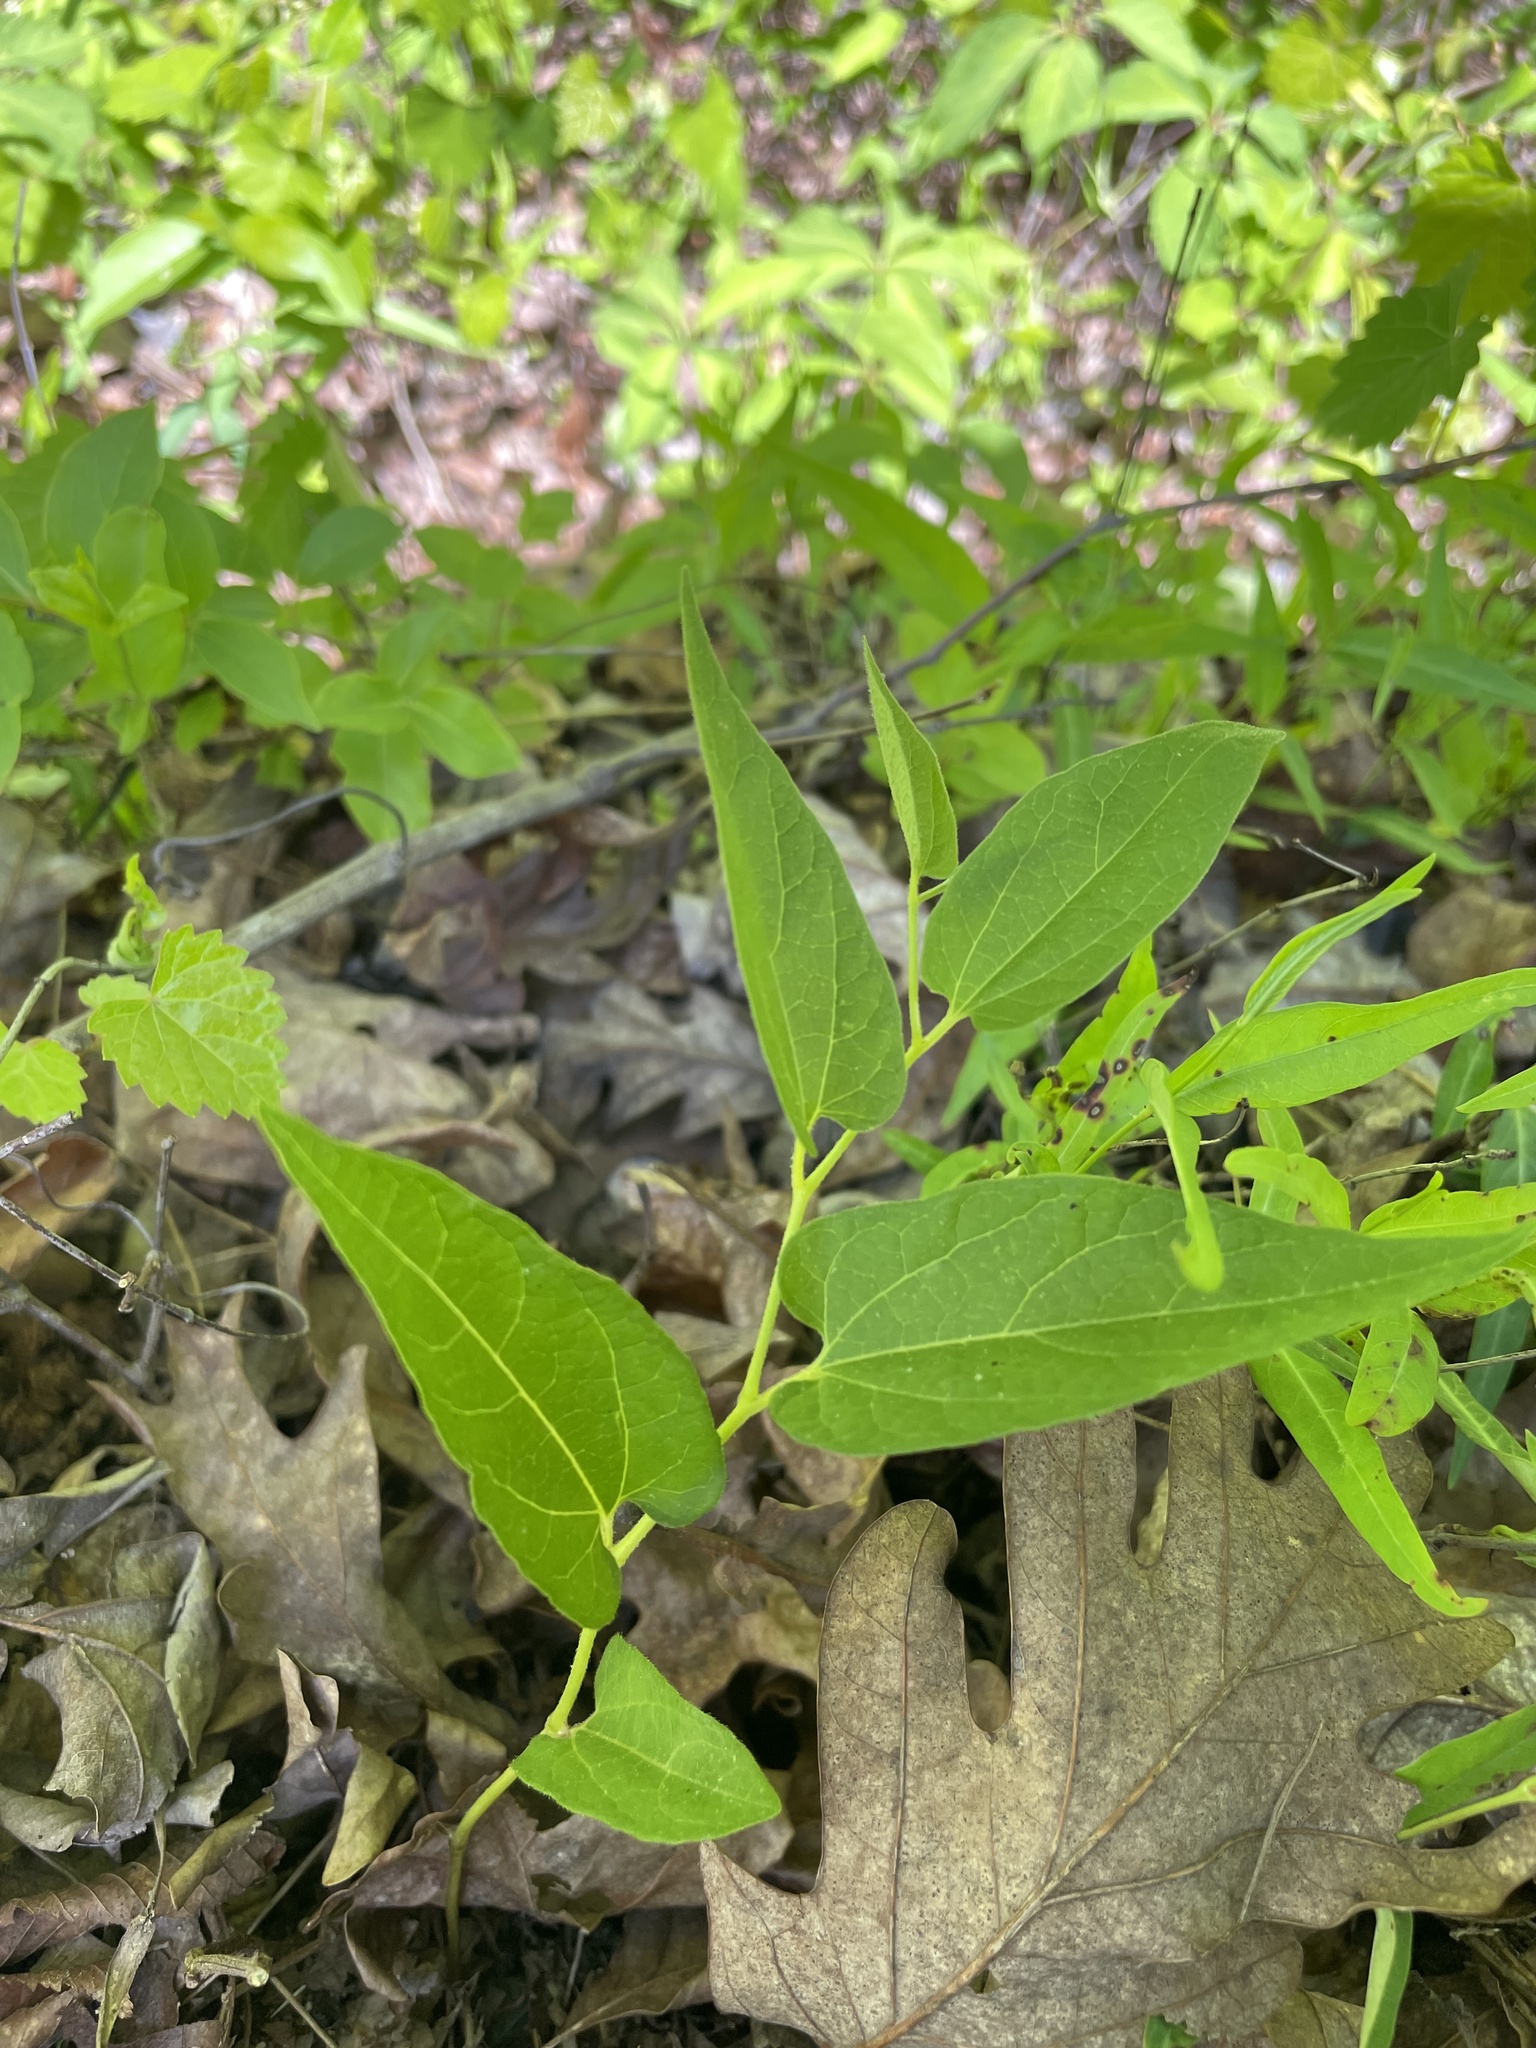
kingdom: Plantae
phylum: Tracheophyta
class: Magnoliopsida
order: Piperales
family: Aristolochiaceae
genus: Endodeca
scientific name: Endodeca serpentaria
